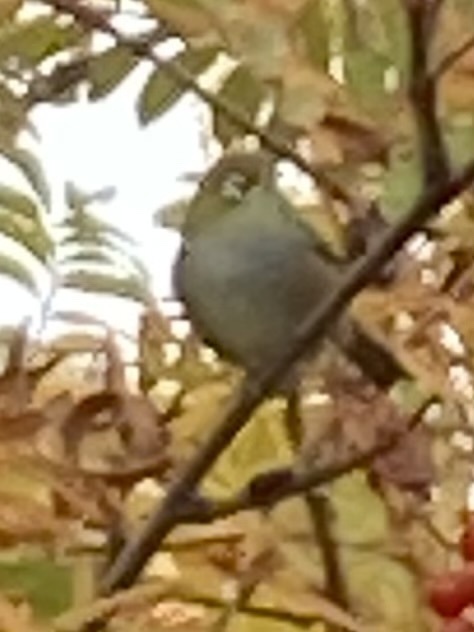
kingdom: Animalia
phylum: Chordata
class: Aves
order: Passeriformes
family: Zosteropidae
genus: Zosterops
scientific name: Zosterops lateralis
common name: Silvereye
